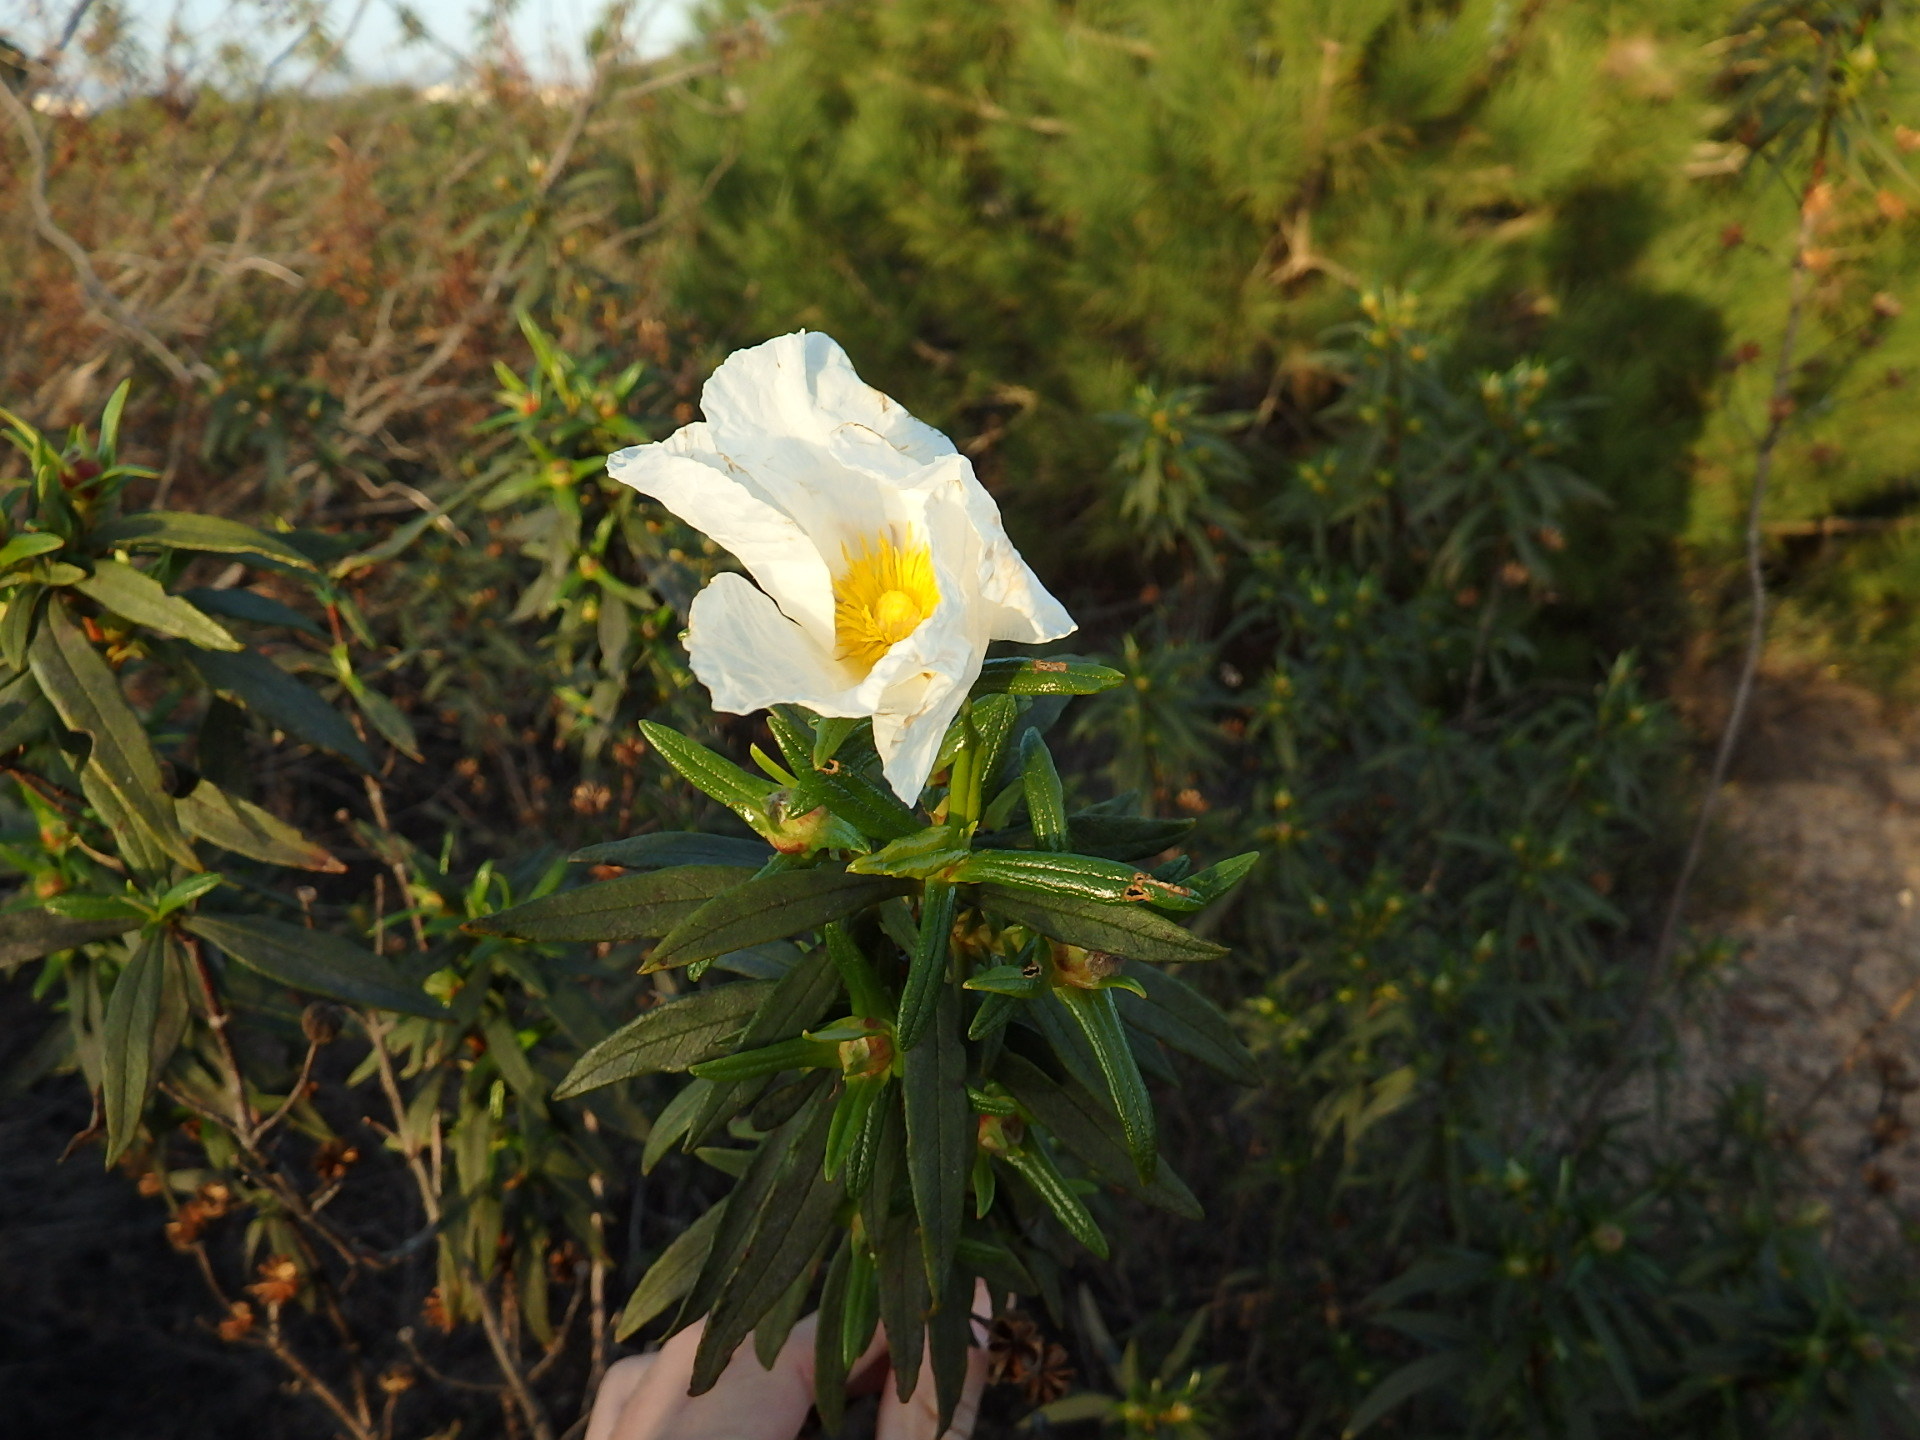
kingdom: Plantae
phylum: Tracheophyta
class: Magnoliopsida
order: Malvales
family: Cistaceae
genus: Cistus
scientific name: Cistus ladanifer
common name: Common gum cistus
